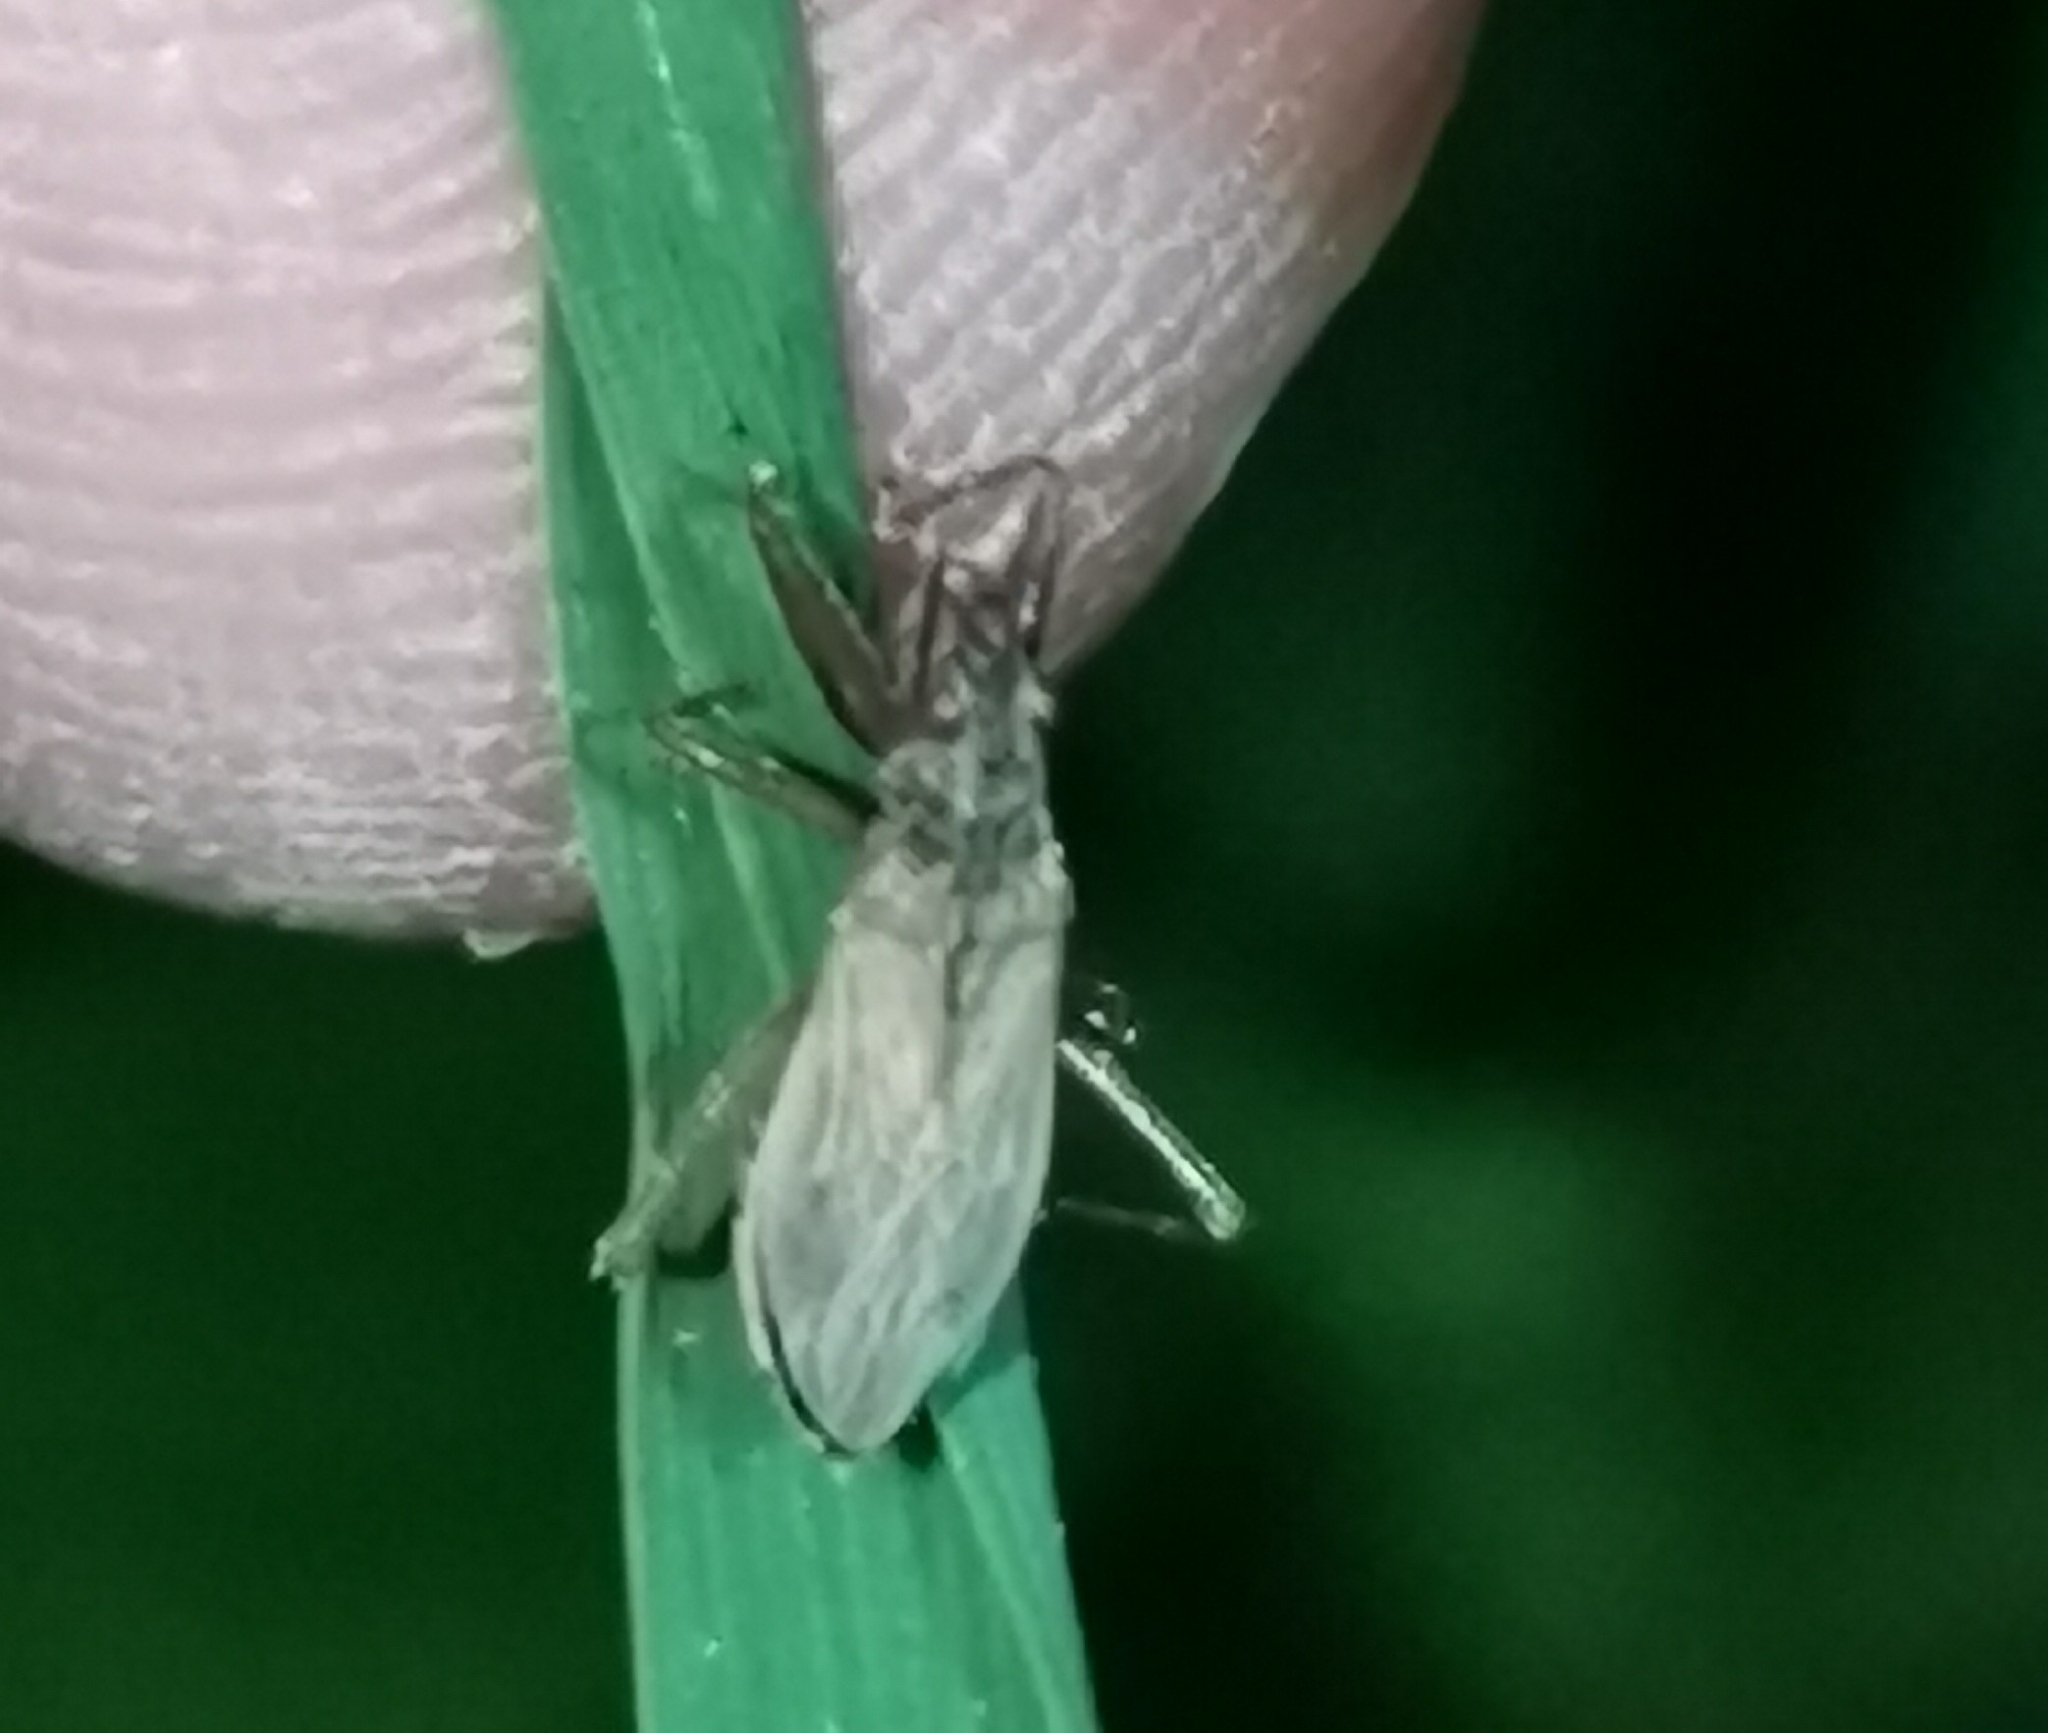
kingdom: Animalia
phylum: Arthropoda
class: Insecta
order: Hemiptera
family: Nabidae
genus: Nabis
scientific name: Nabis brevis
